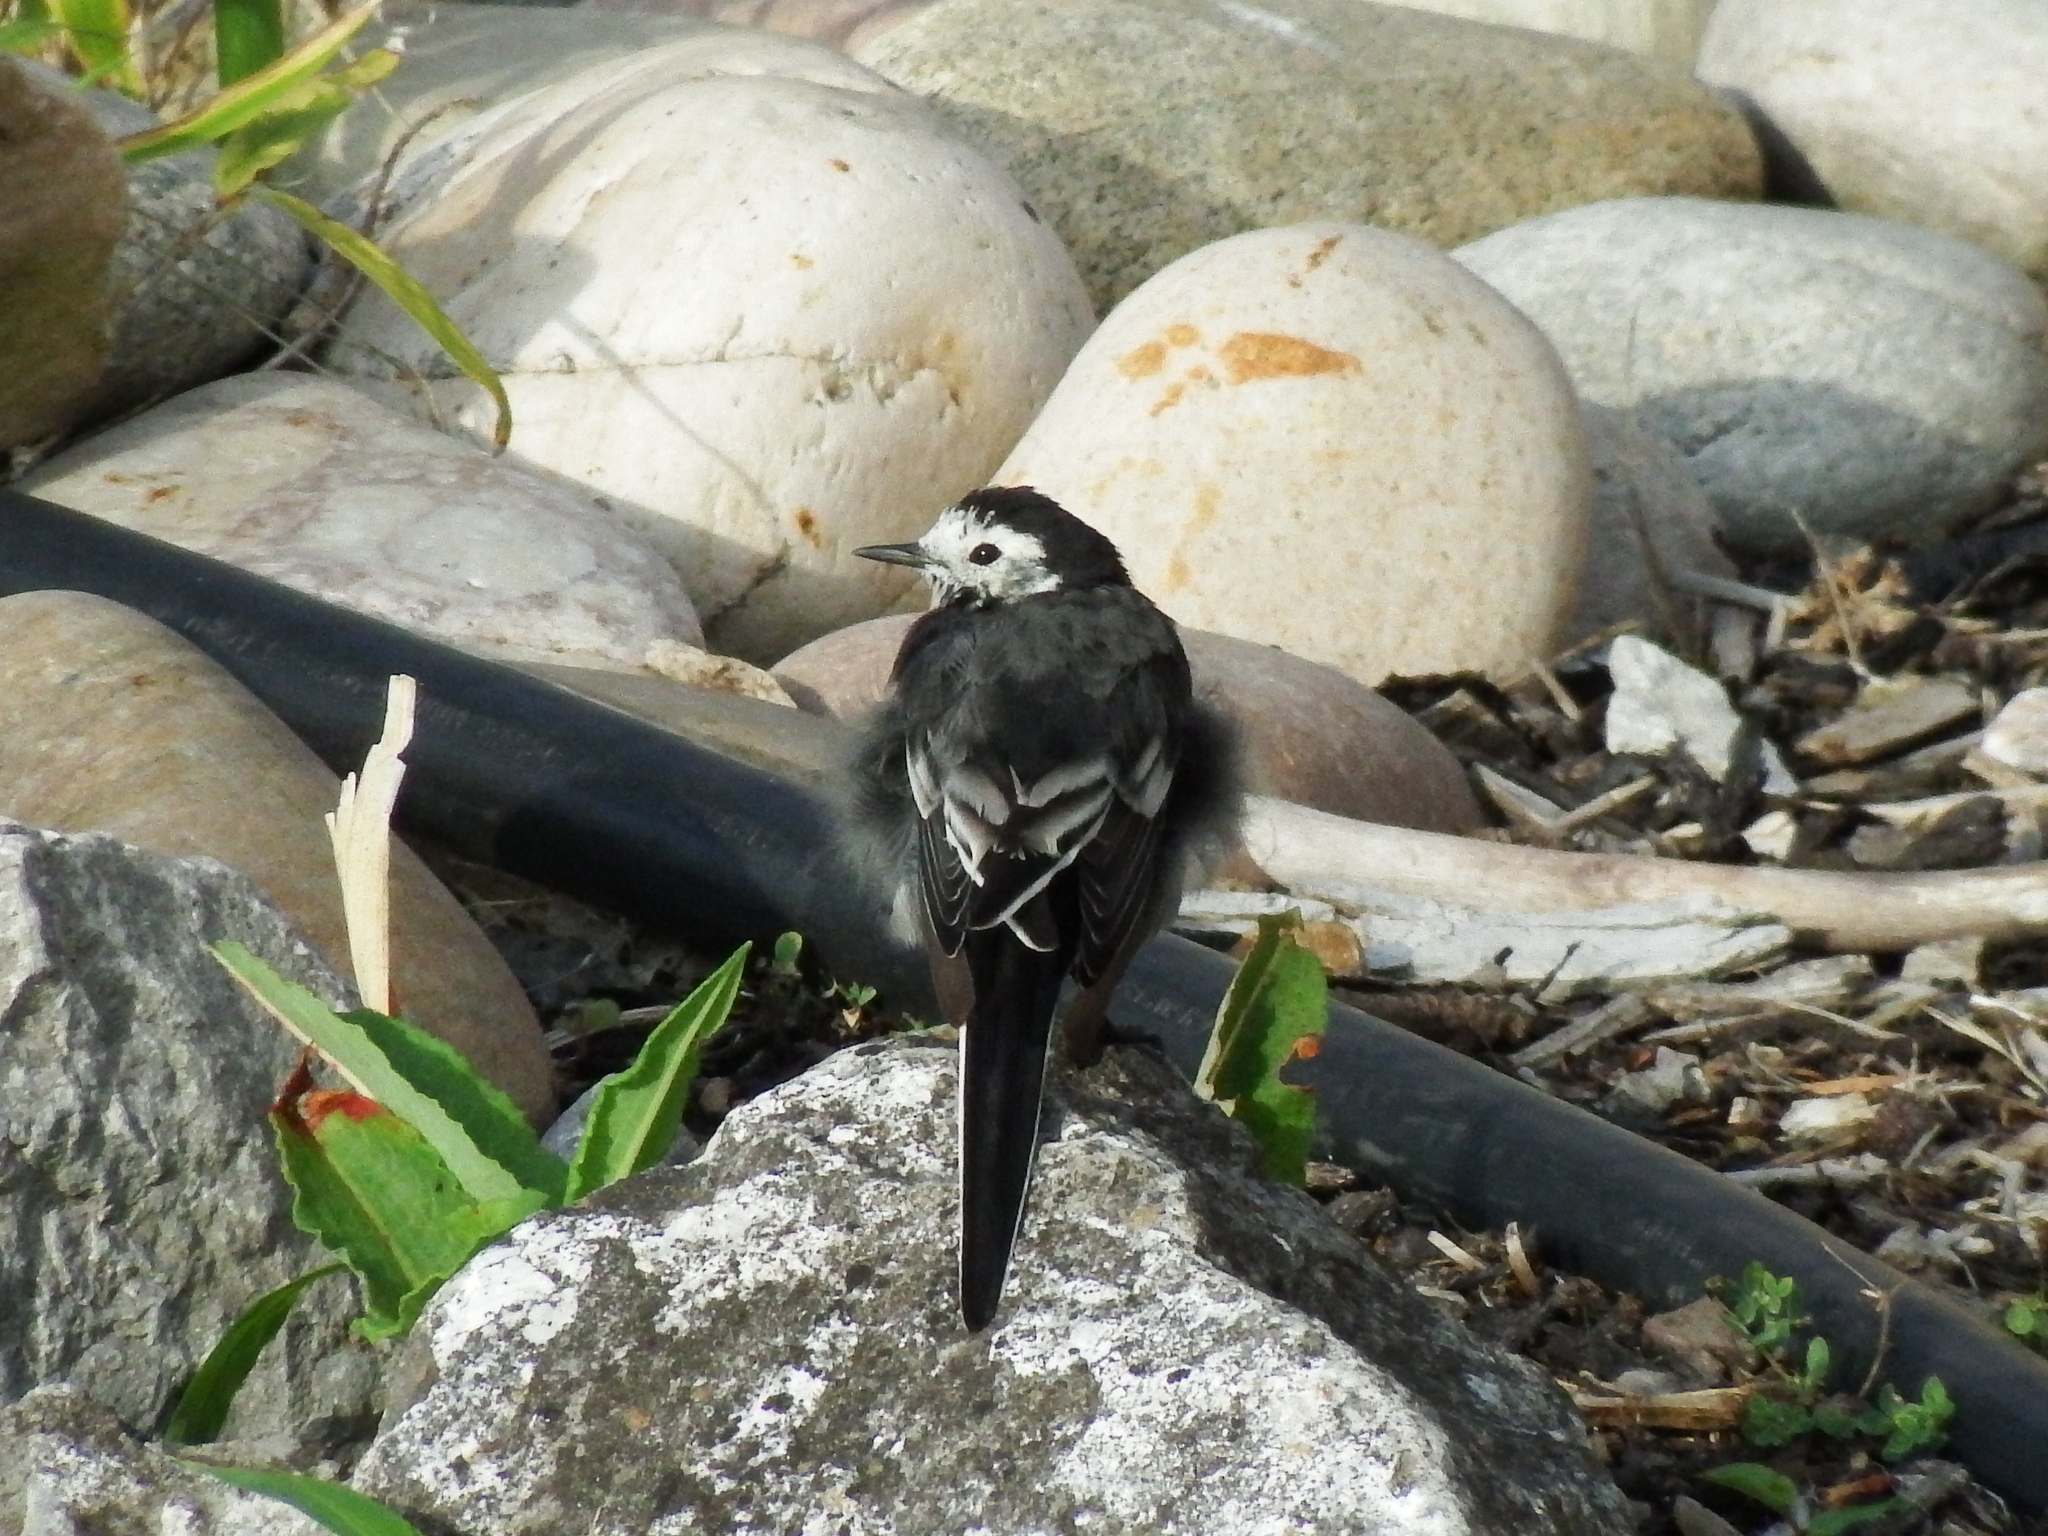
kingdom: Animalia
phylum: Chordata
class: Aves
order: Passeriformes
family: Motacillidae
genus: Motacilla
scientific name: Motacilla alba
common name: White wagtail
